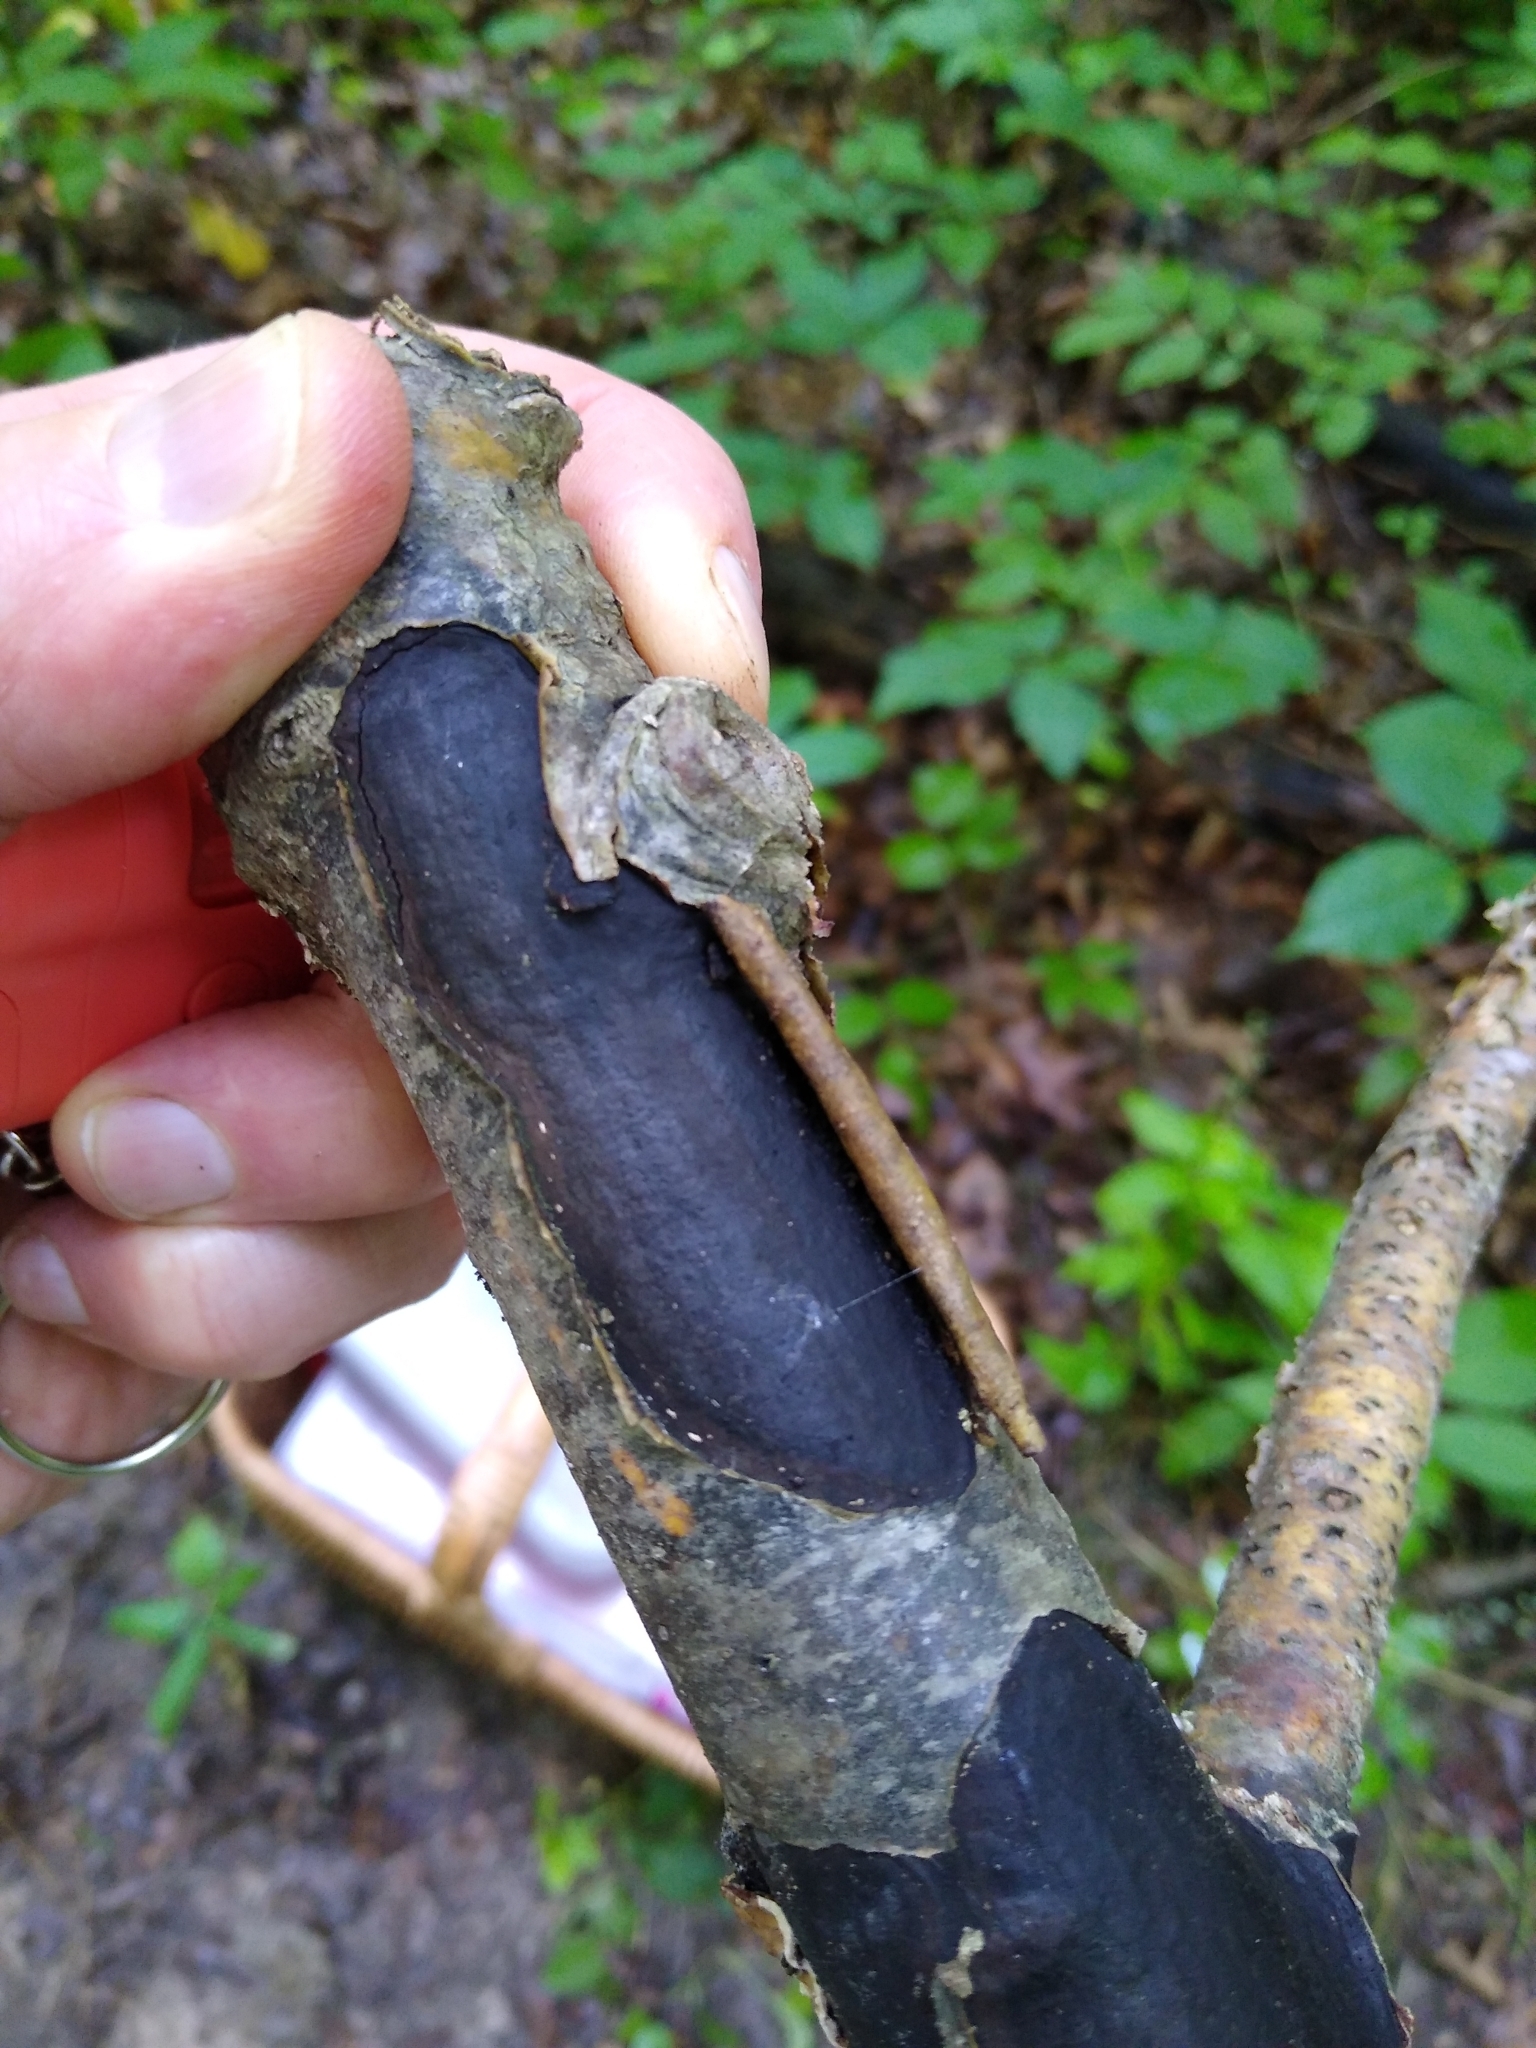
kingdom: Fungi
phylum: Ascomycota
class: Sordariomycetes
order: Xylariales
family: Graphostromataceae
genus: Camillea
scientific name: Camillea punctulata
